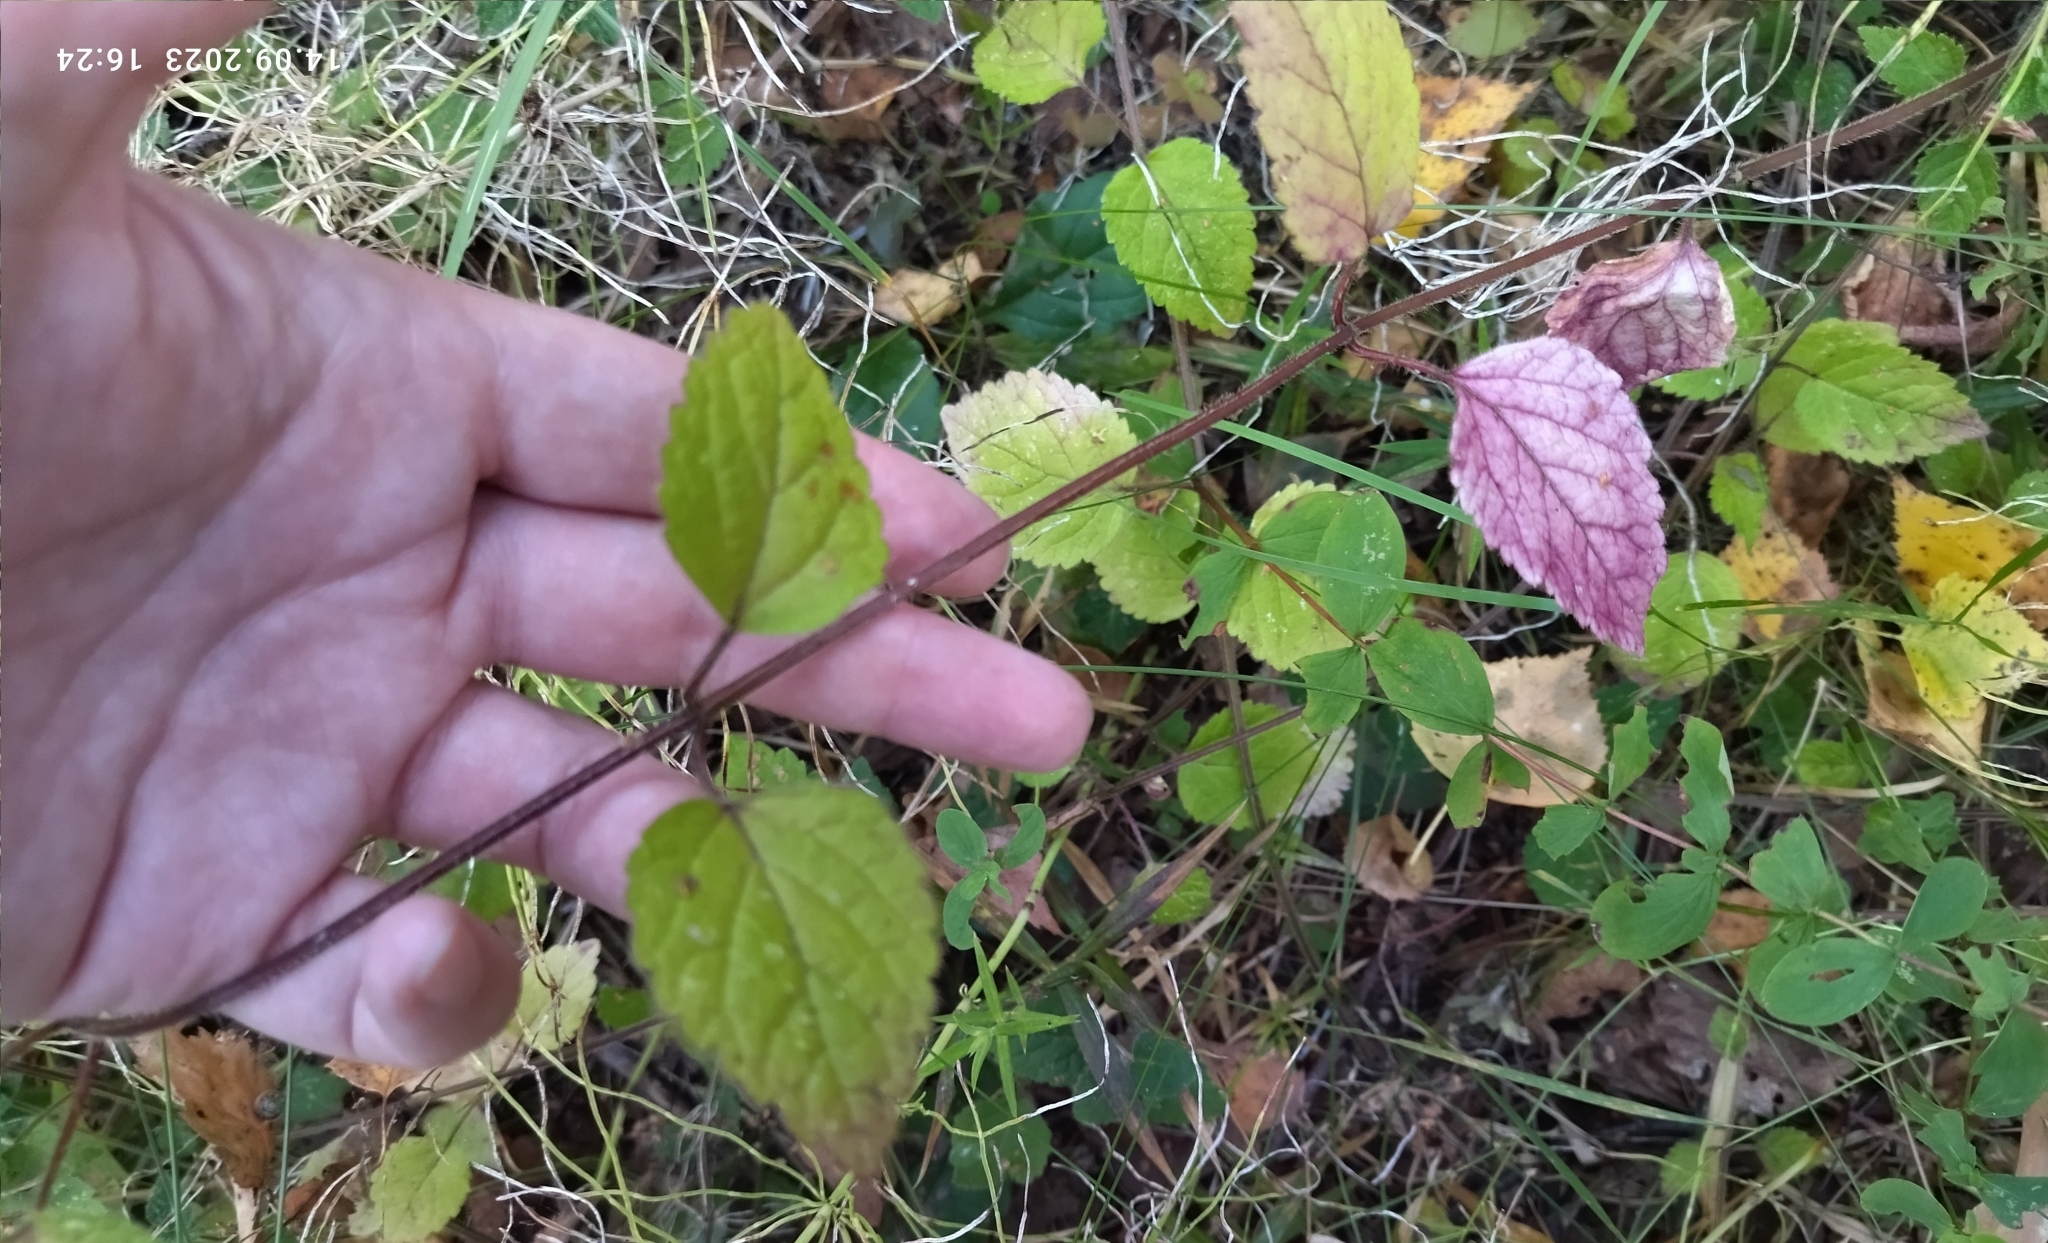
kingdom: Plantae
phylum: Tracheophyta
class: Magnoliopsida
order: Lamiales
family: Lamiaceae
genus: Lamium
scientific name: Lamium galeobdolon
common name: Yellow archangel
